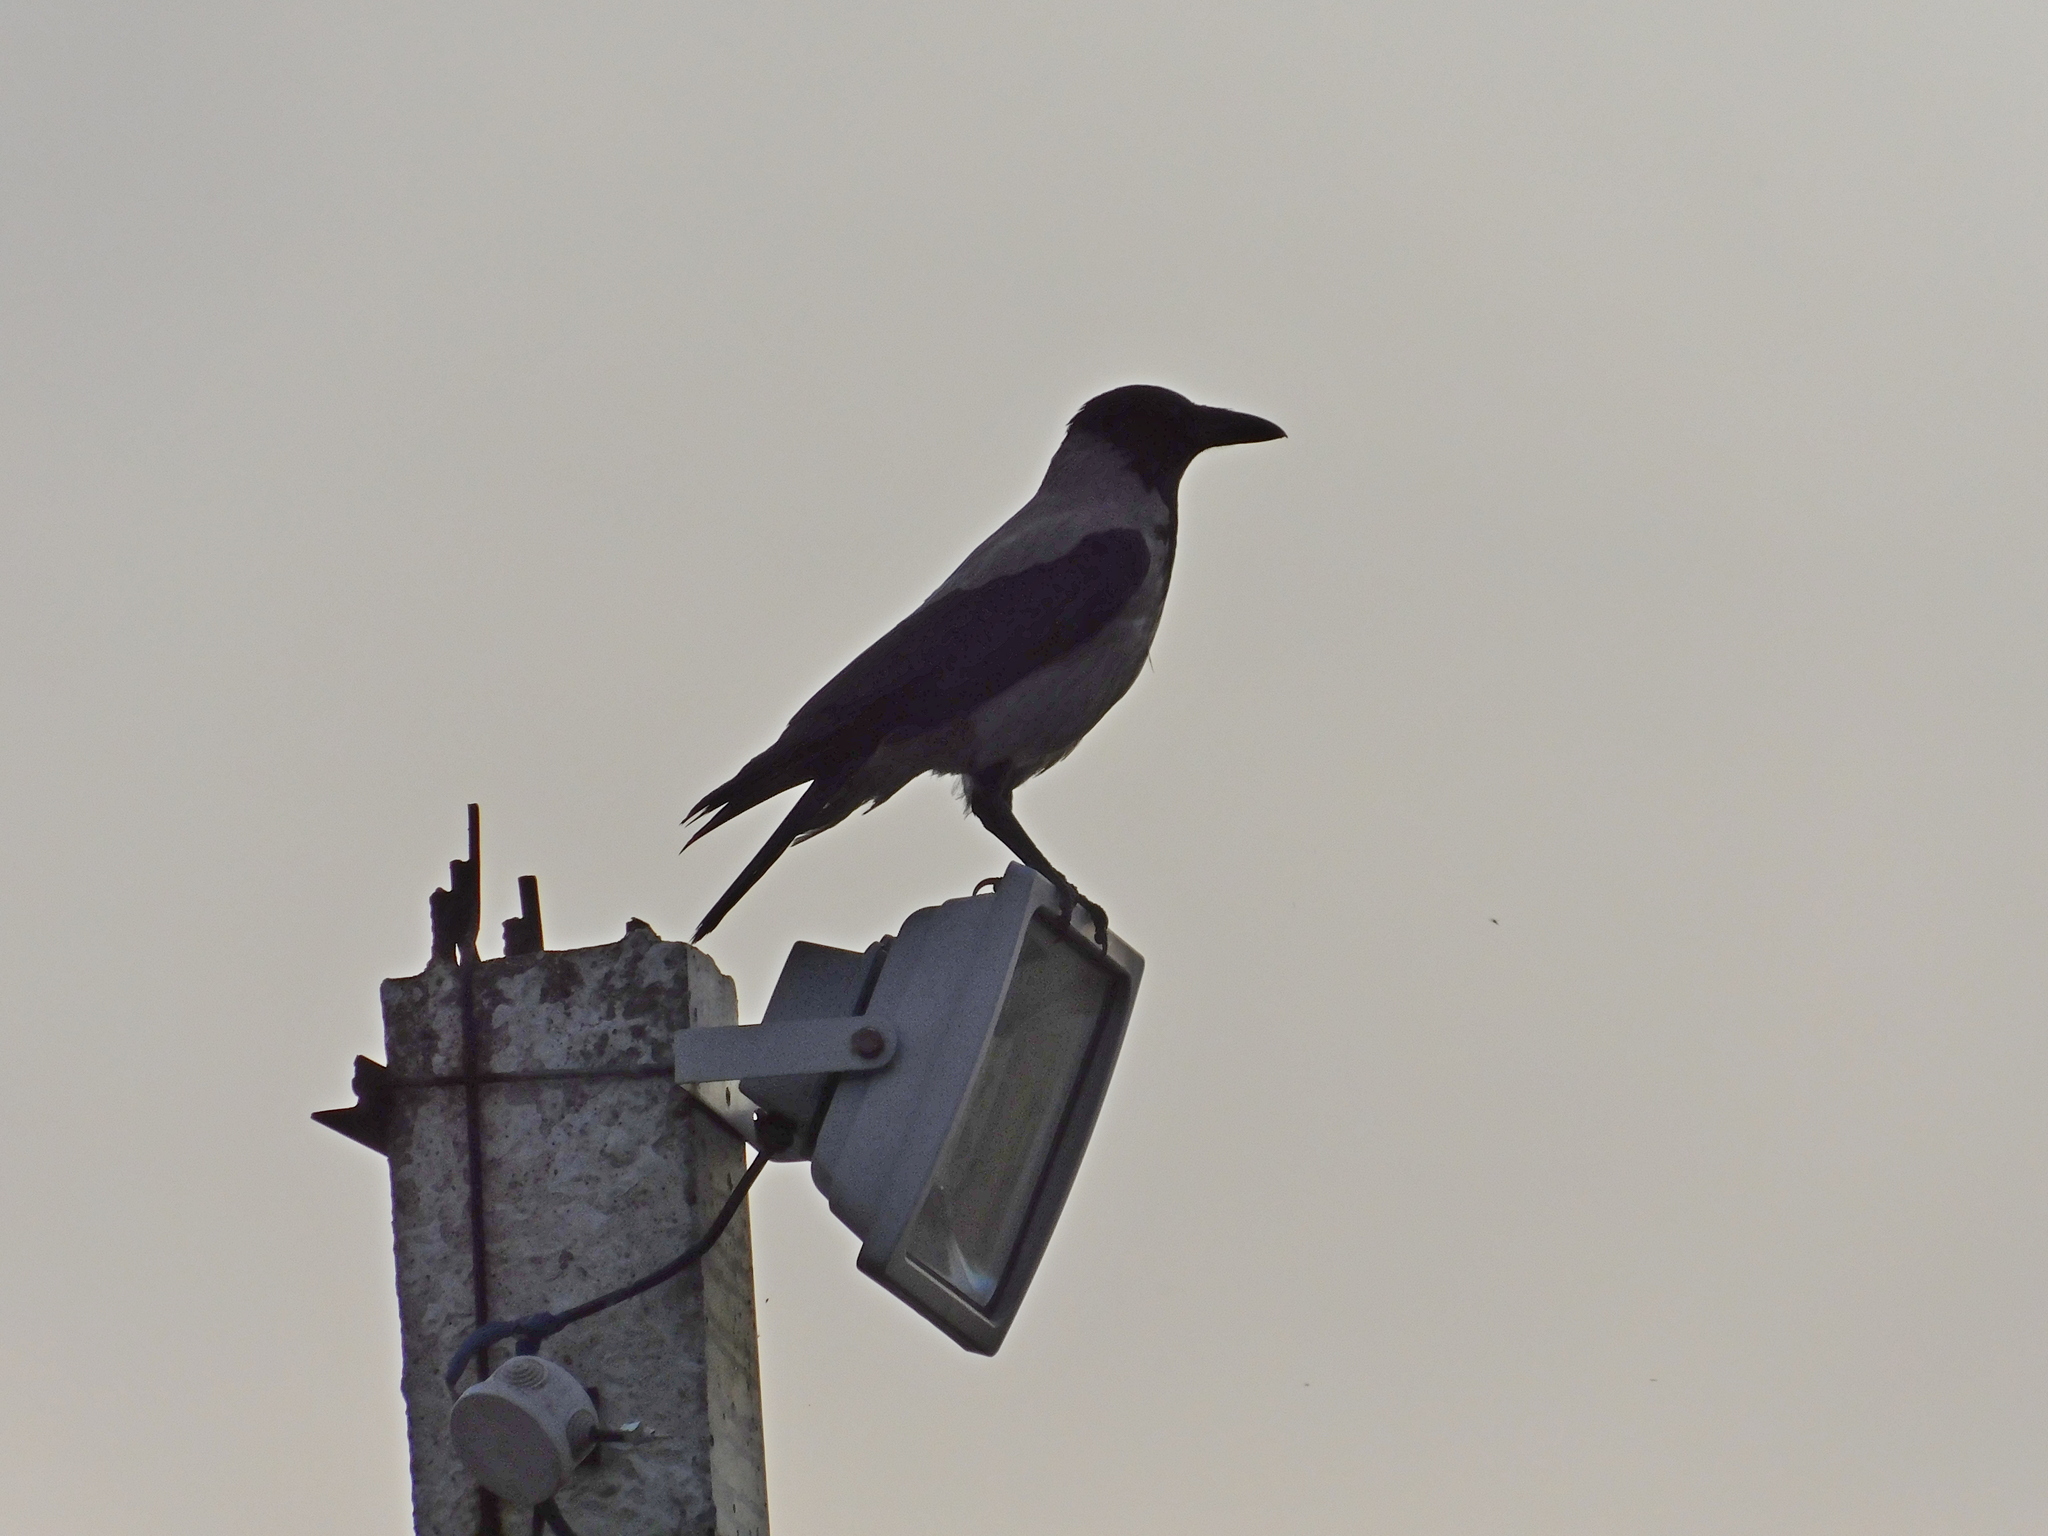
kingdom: Animalia
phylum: Chordata
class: Aves
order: Passeriformes
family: Corvidae
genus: Corvus
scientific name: Corvus cornix
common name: Hooded crow
